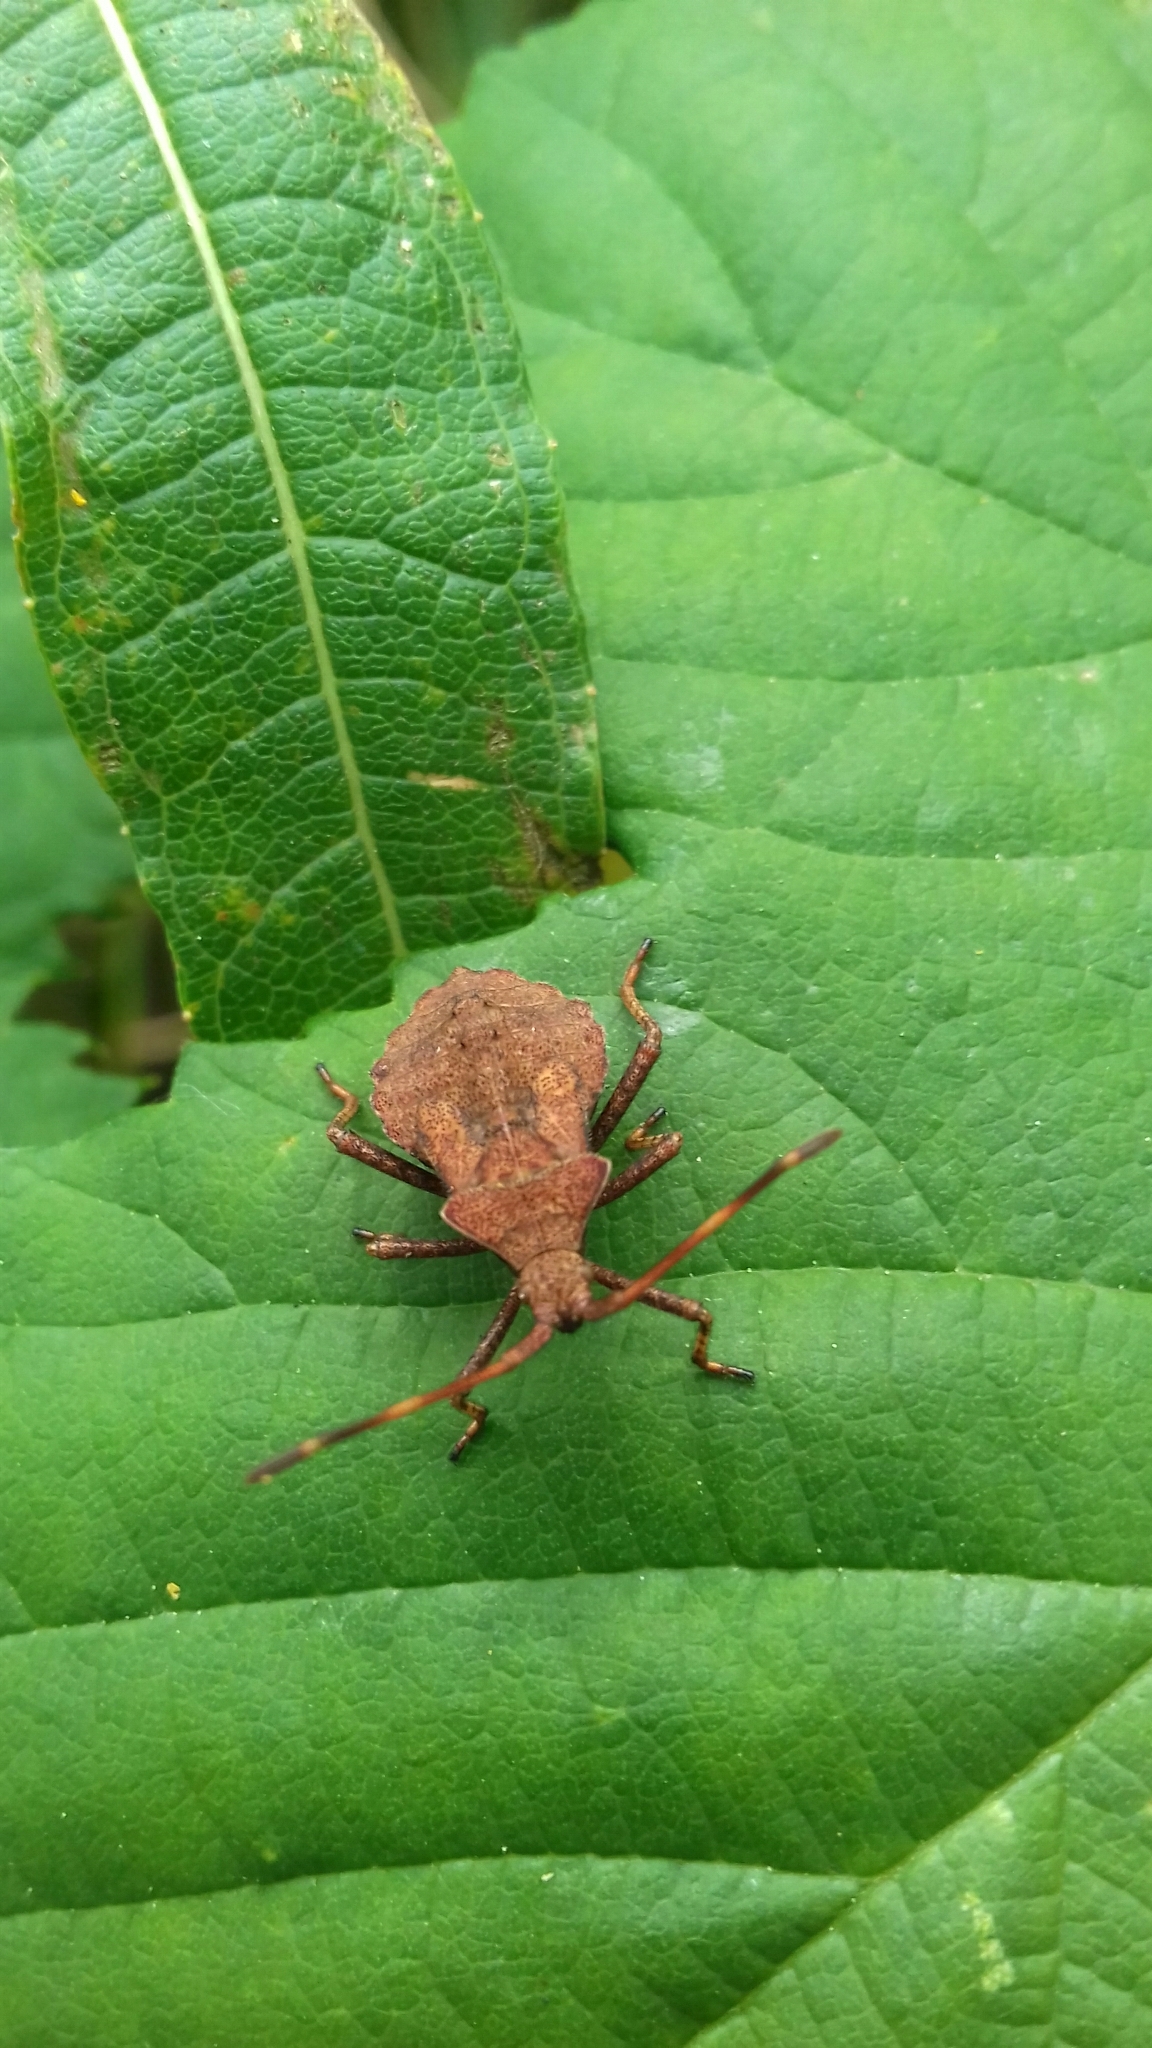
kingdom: Animalia
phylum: Arthropoda
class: Insecta
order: Hemiptera
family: Coreidae
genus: Coreus
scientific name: Coreus marginatus
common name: Dock bug
